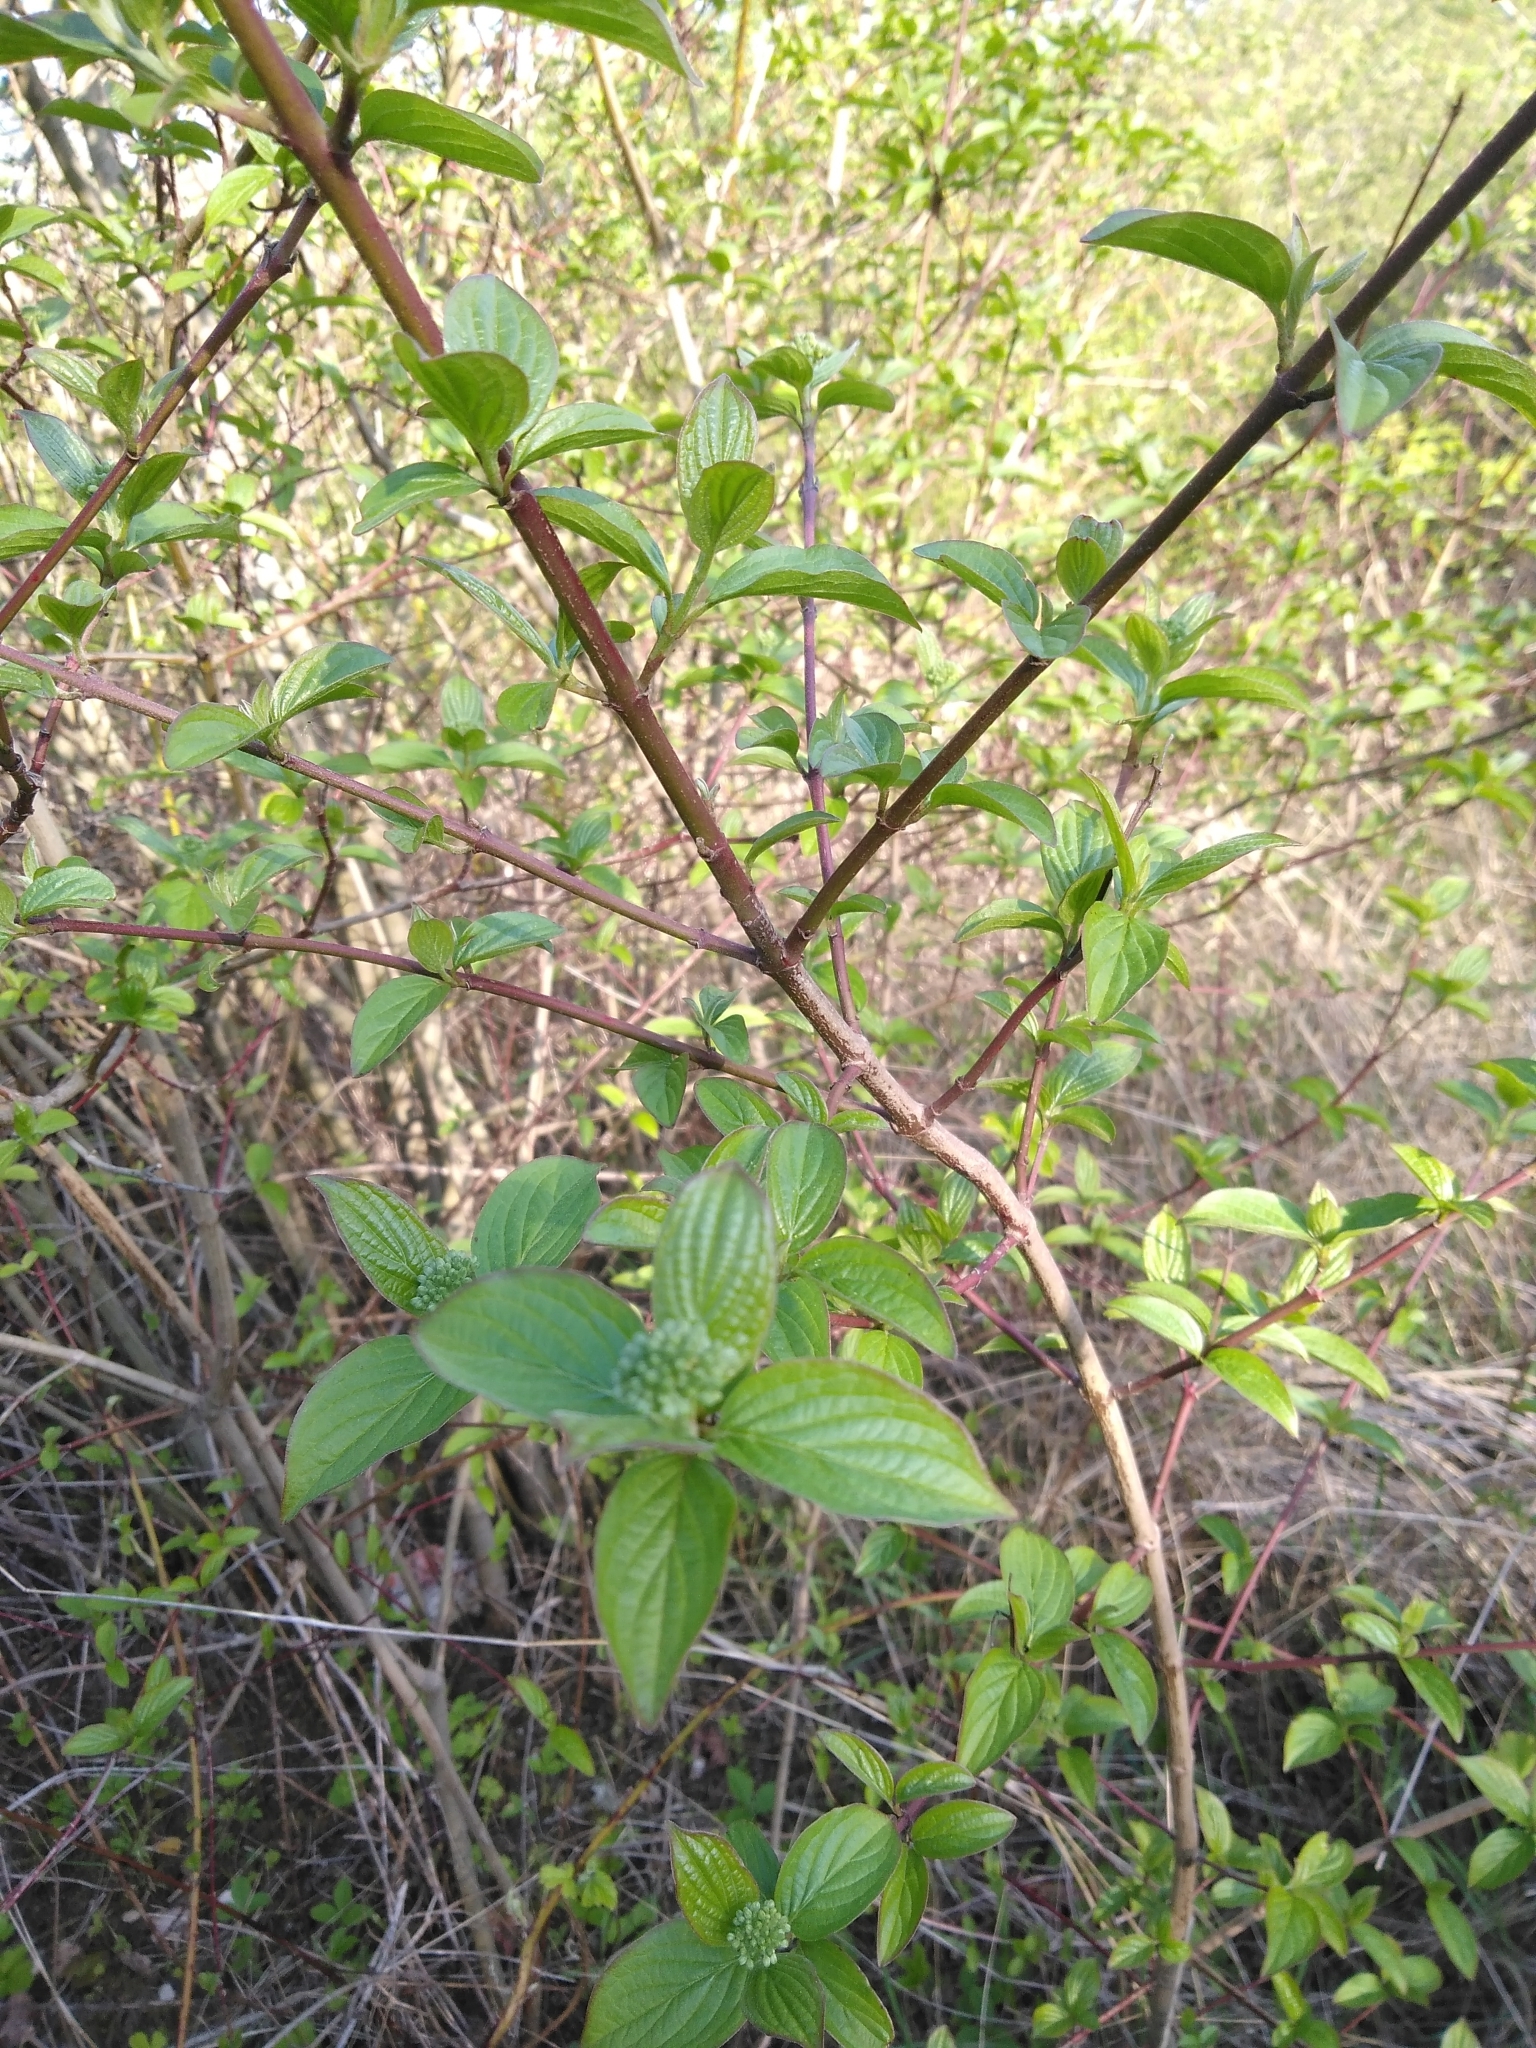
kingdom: Plantae
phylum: Tracheophyta
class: Magnoliopsida
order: Cornales
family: Cornaceae
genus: Cornus
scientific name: Cornus sanguinea
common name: Dogwood
